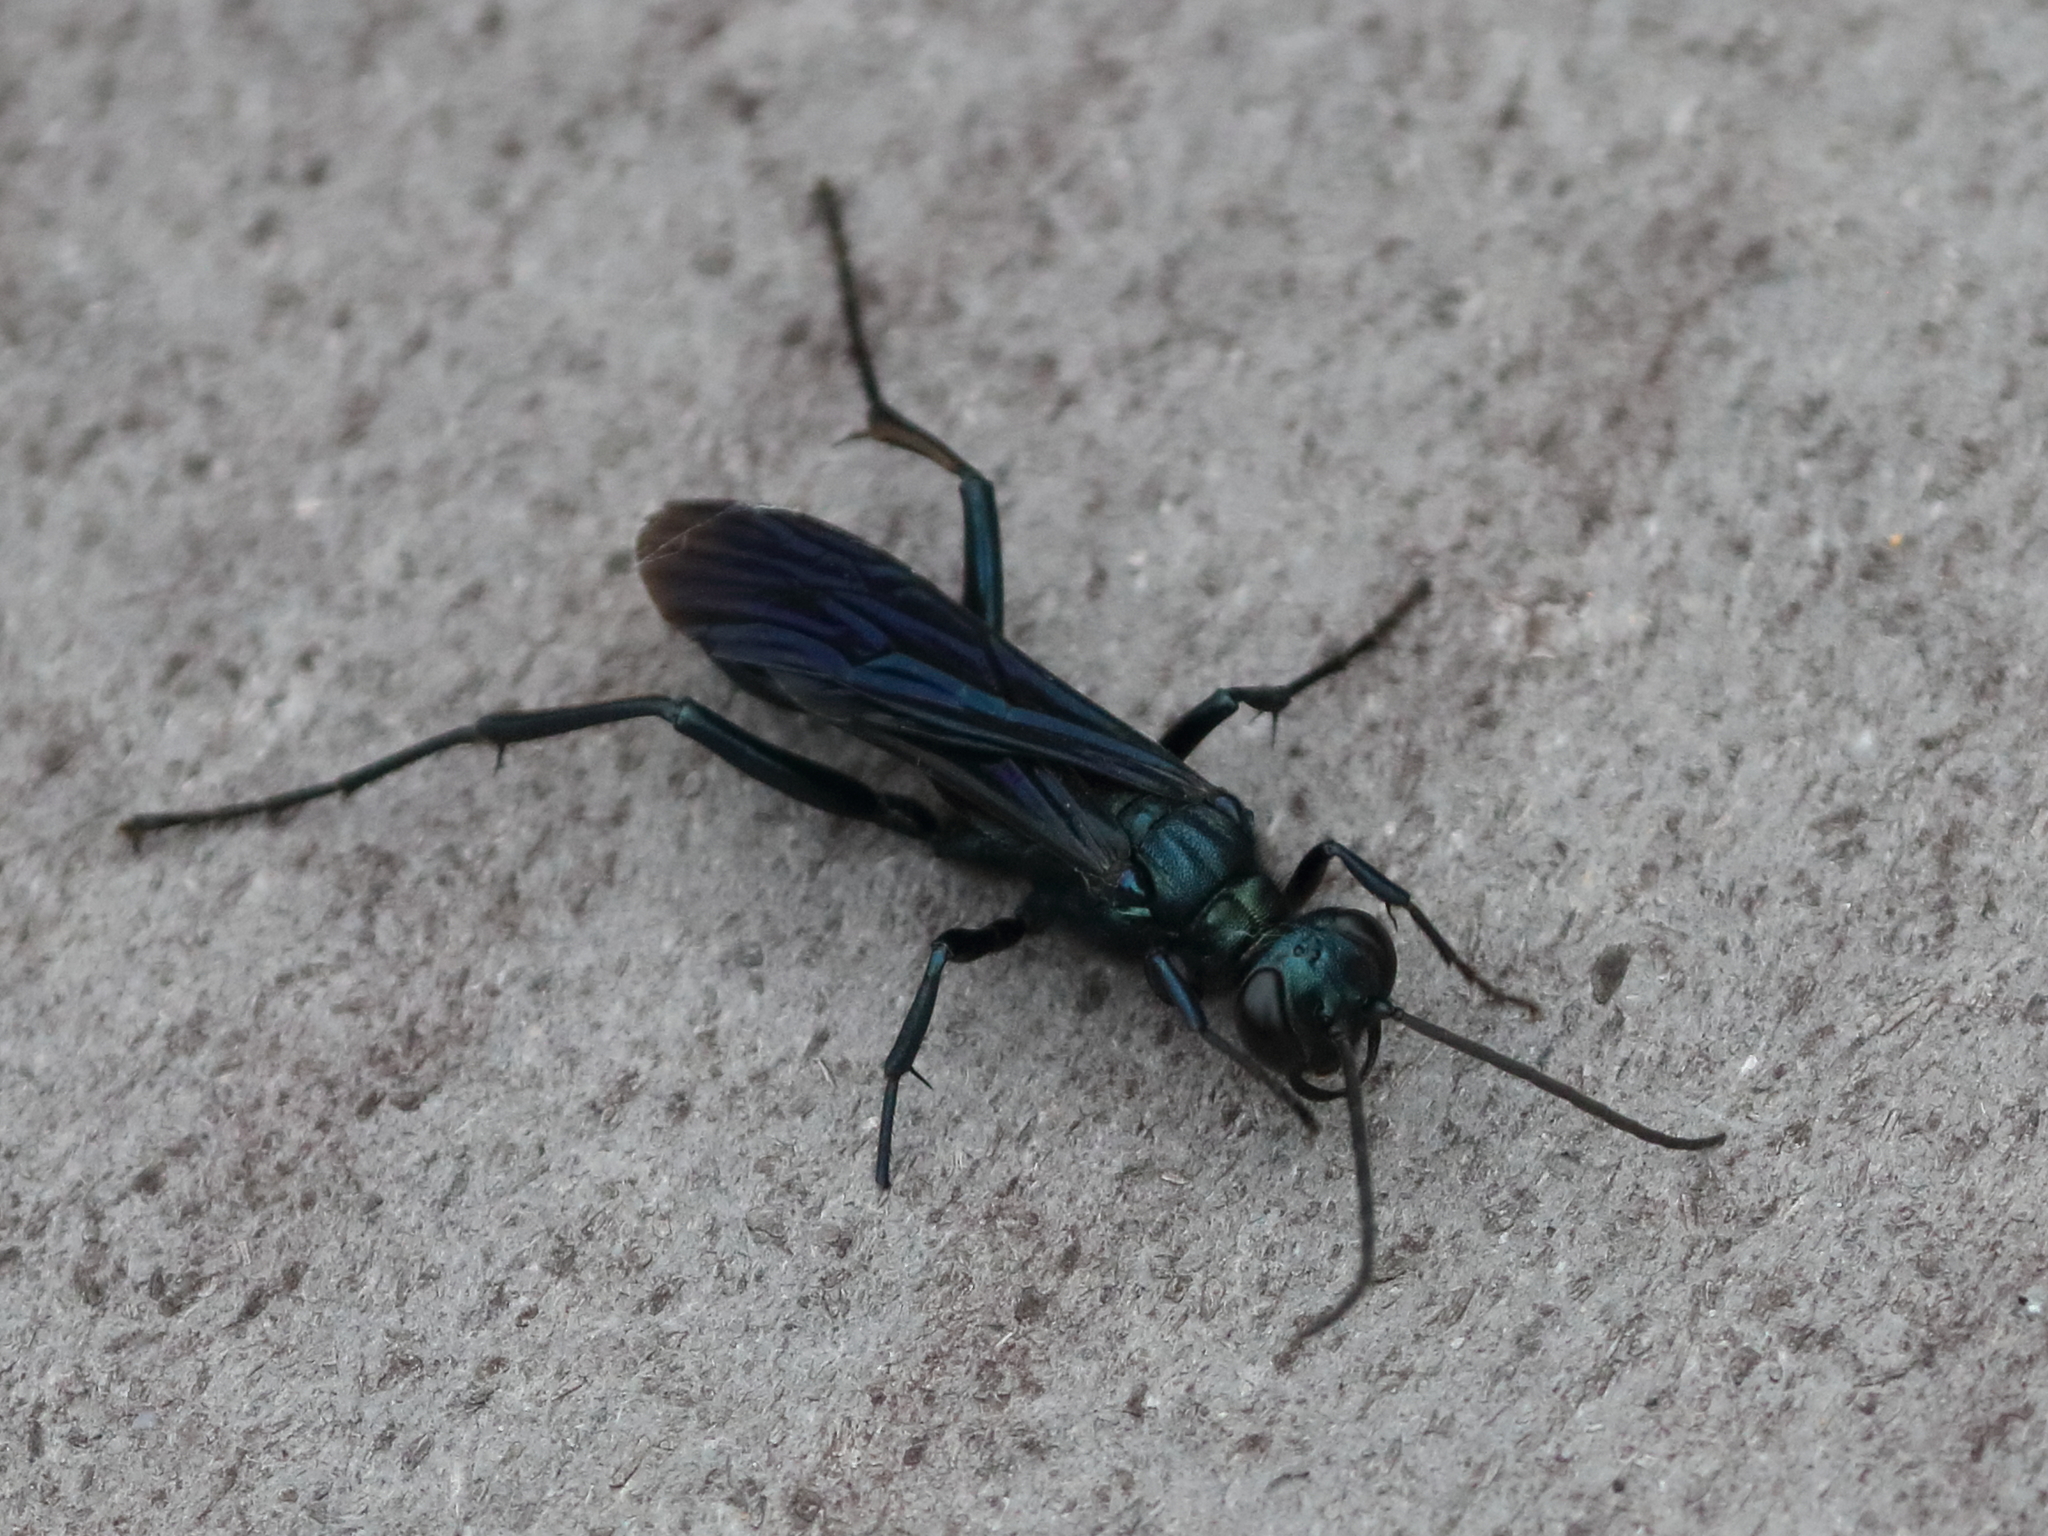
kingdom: Animalia
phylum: Arthropoda
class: Insecta
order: Hymenoptera
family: Sphecidae
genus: Chalybion
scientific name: Chalybion californicum
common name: Mud dauber
